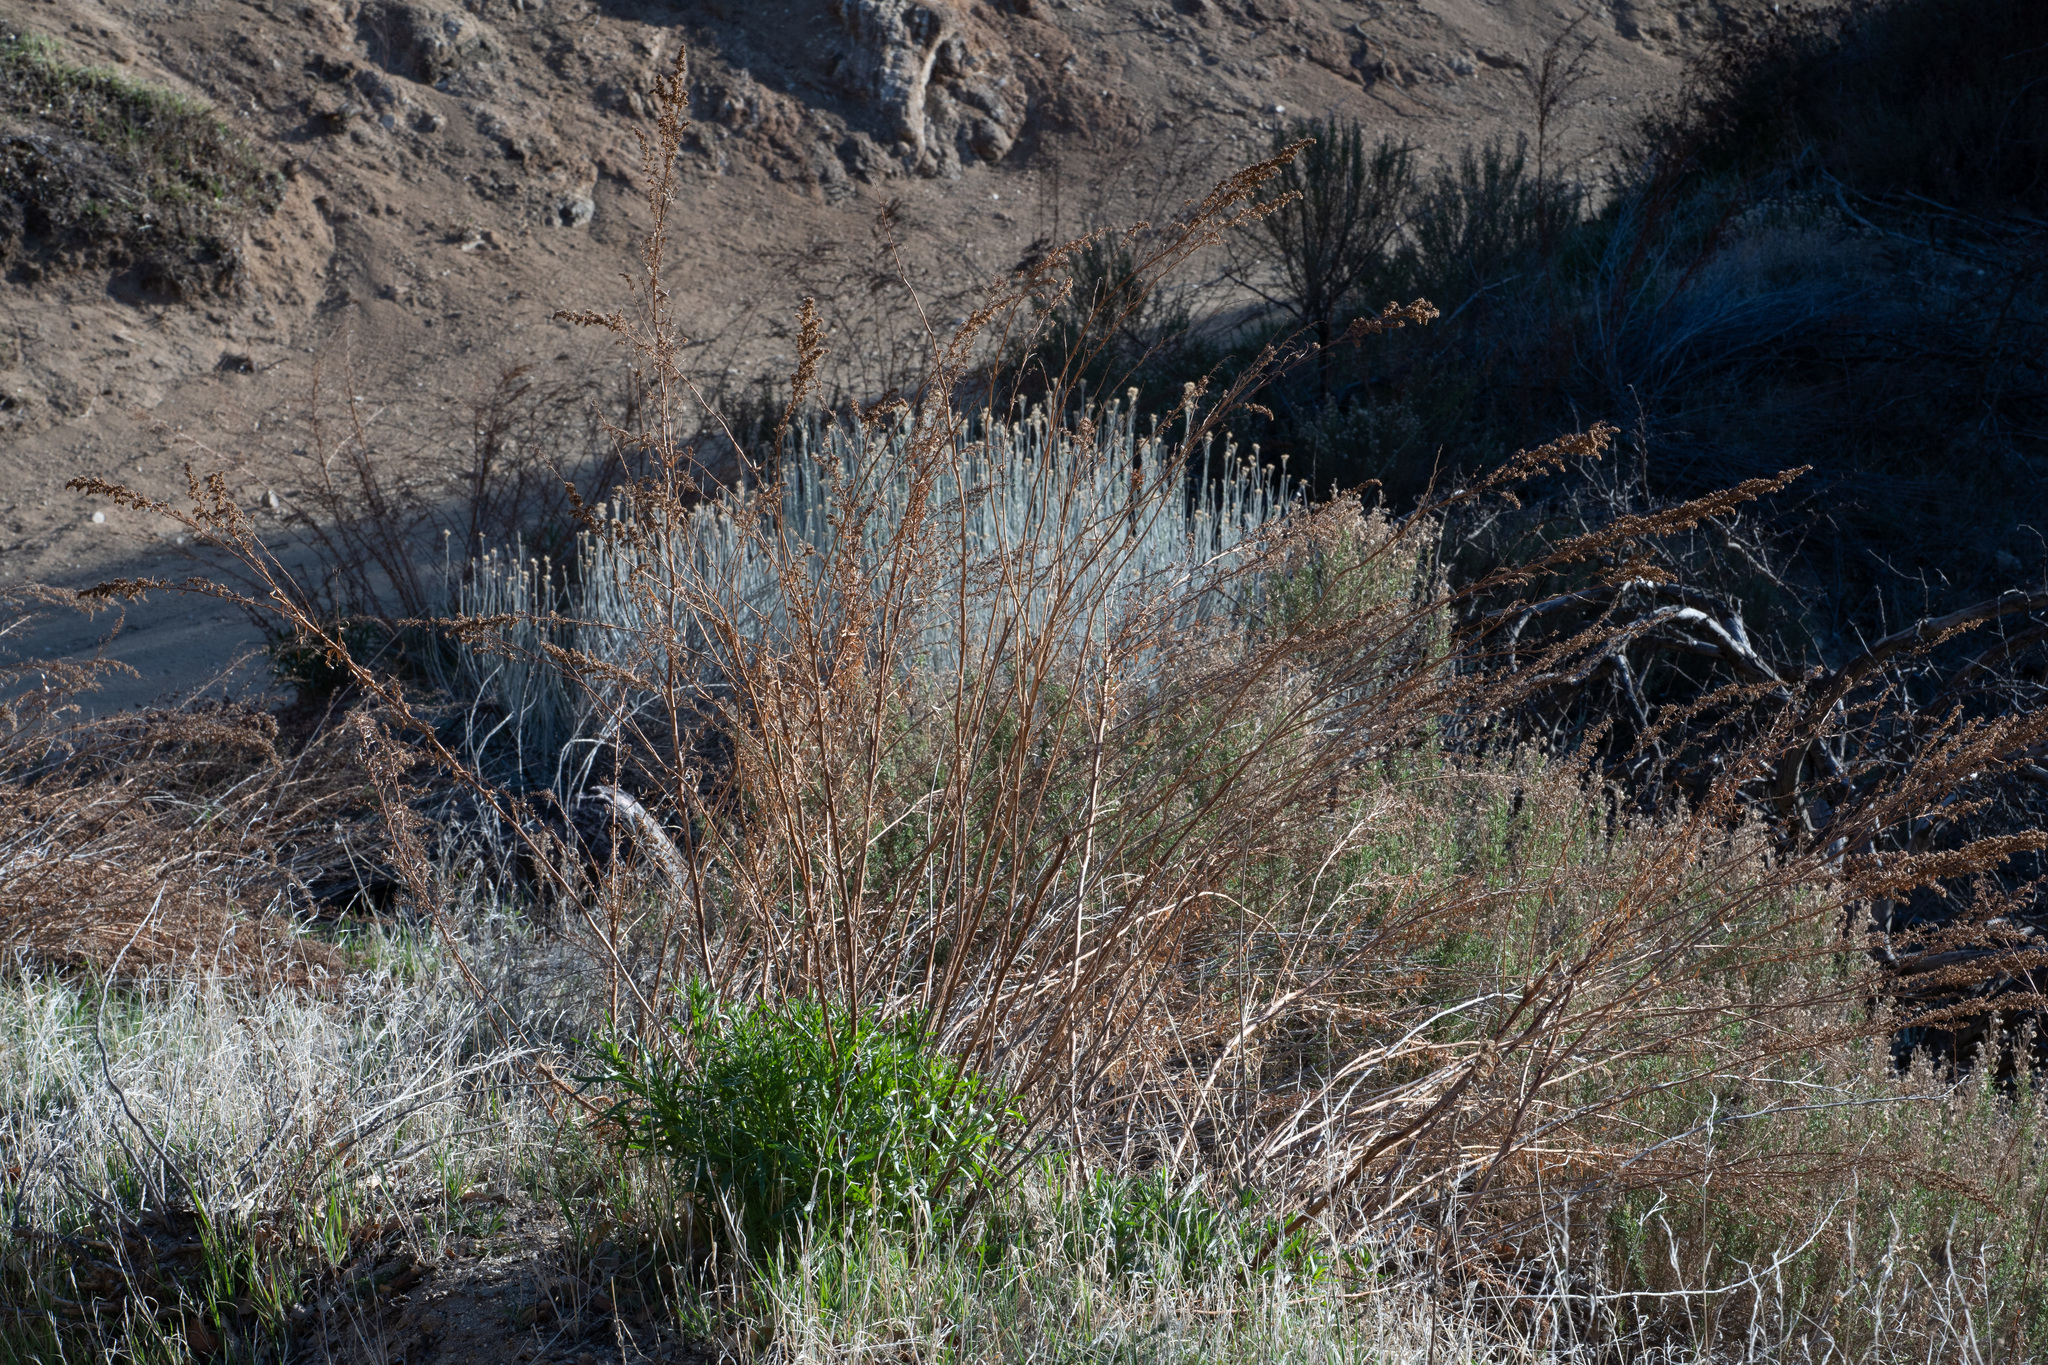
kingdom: Plantae
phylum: Tracheophyta
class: Magnoliopsida
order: Asterales
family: Asteraceae
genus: Artemisia
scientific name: Artemisia dracunculus
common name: Tarragon
